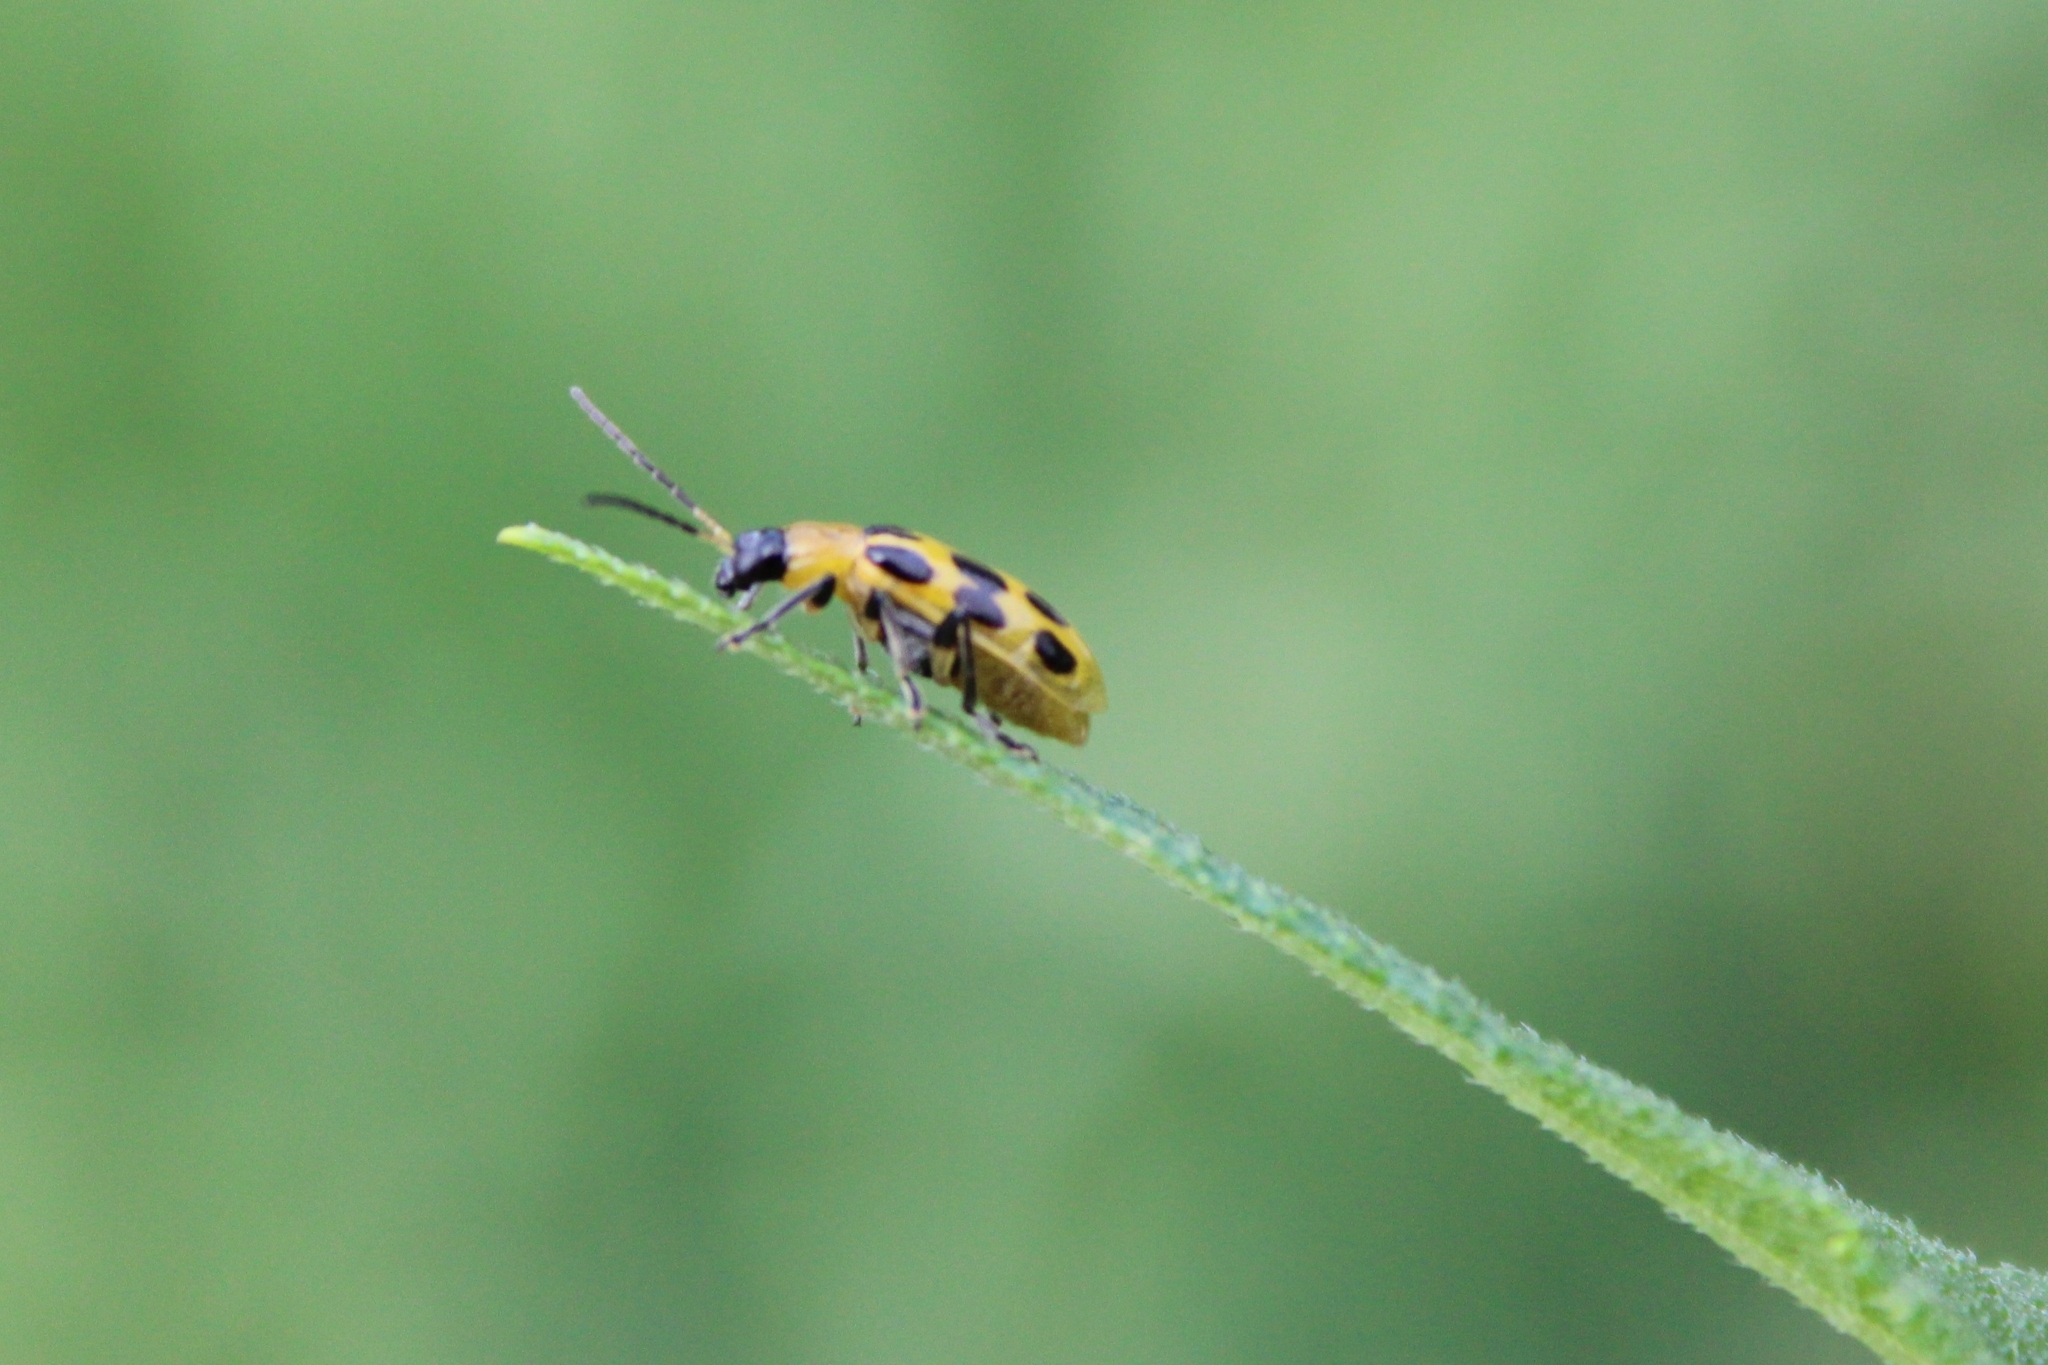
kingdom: Animalia
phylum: Arthropoda
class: Insecta
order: Coleoptera
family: Chrysomelidae
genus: Diabrotica
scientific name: Diabrotica undecimpunctata
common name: Spotted cucumber beetle
